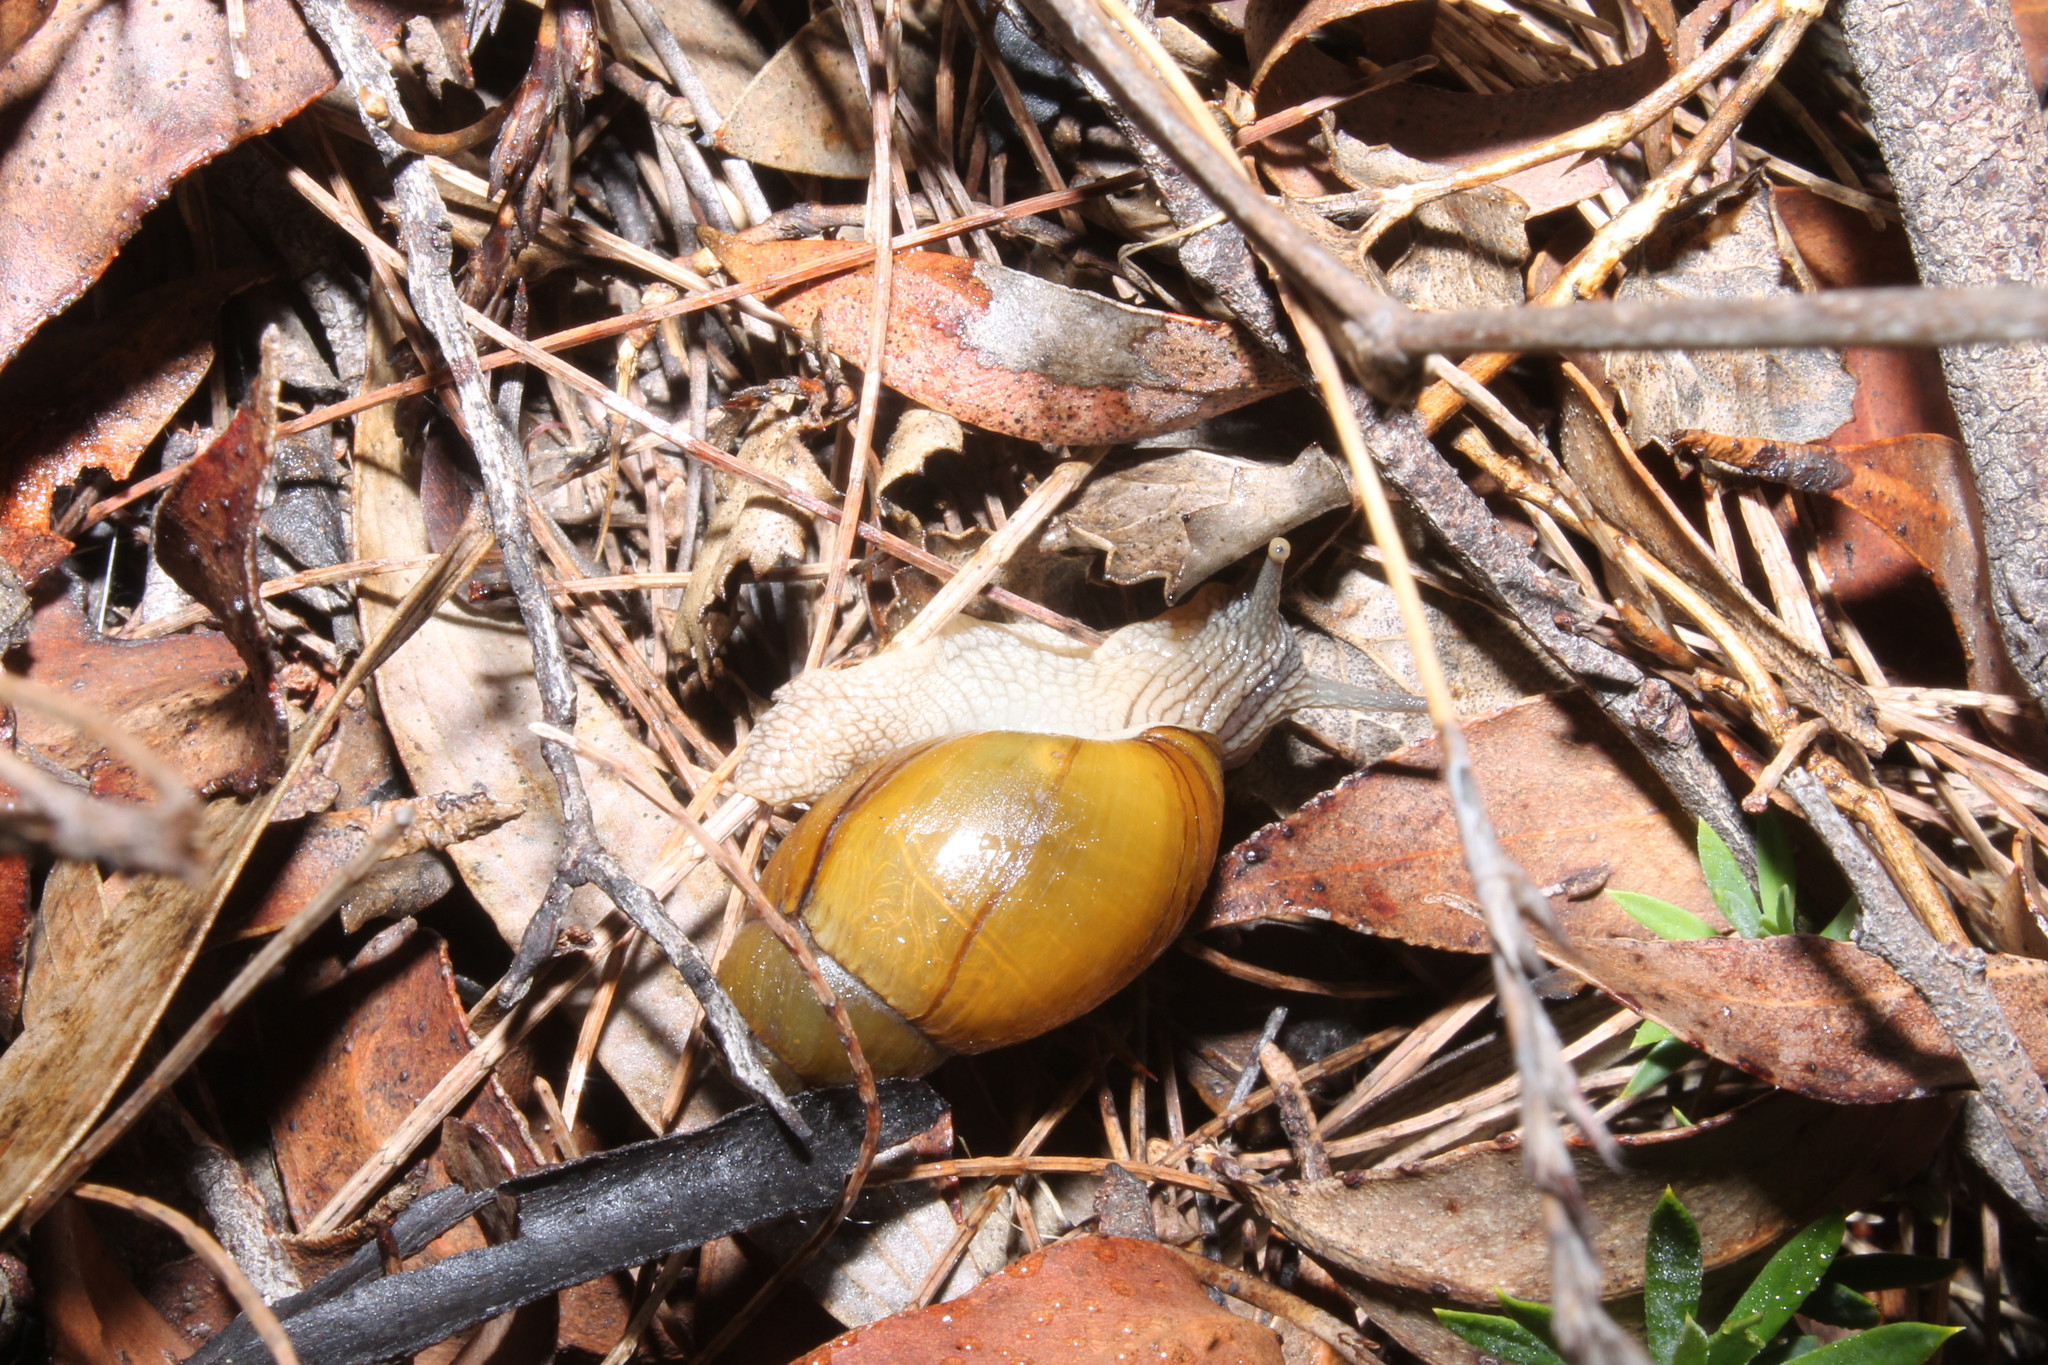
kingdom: Animalia
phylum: Mollusca
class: Gastropoda
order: Stylommatophora
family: Bothriembryontidae
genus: Bothriembryon
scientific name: Bothriembryon glauerti
